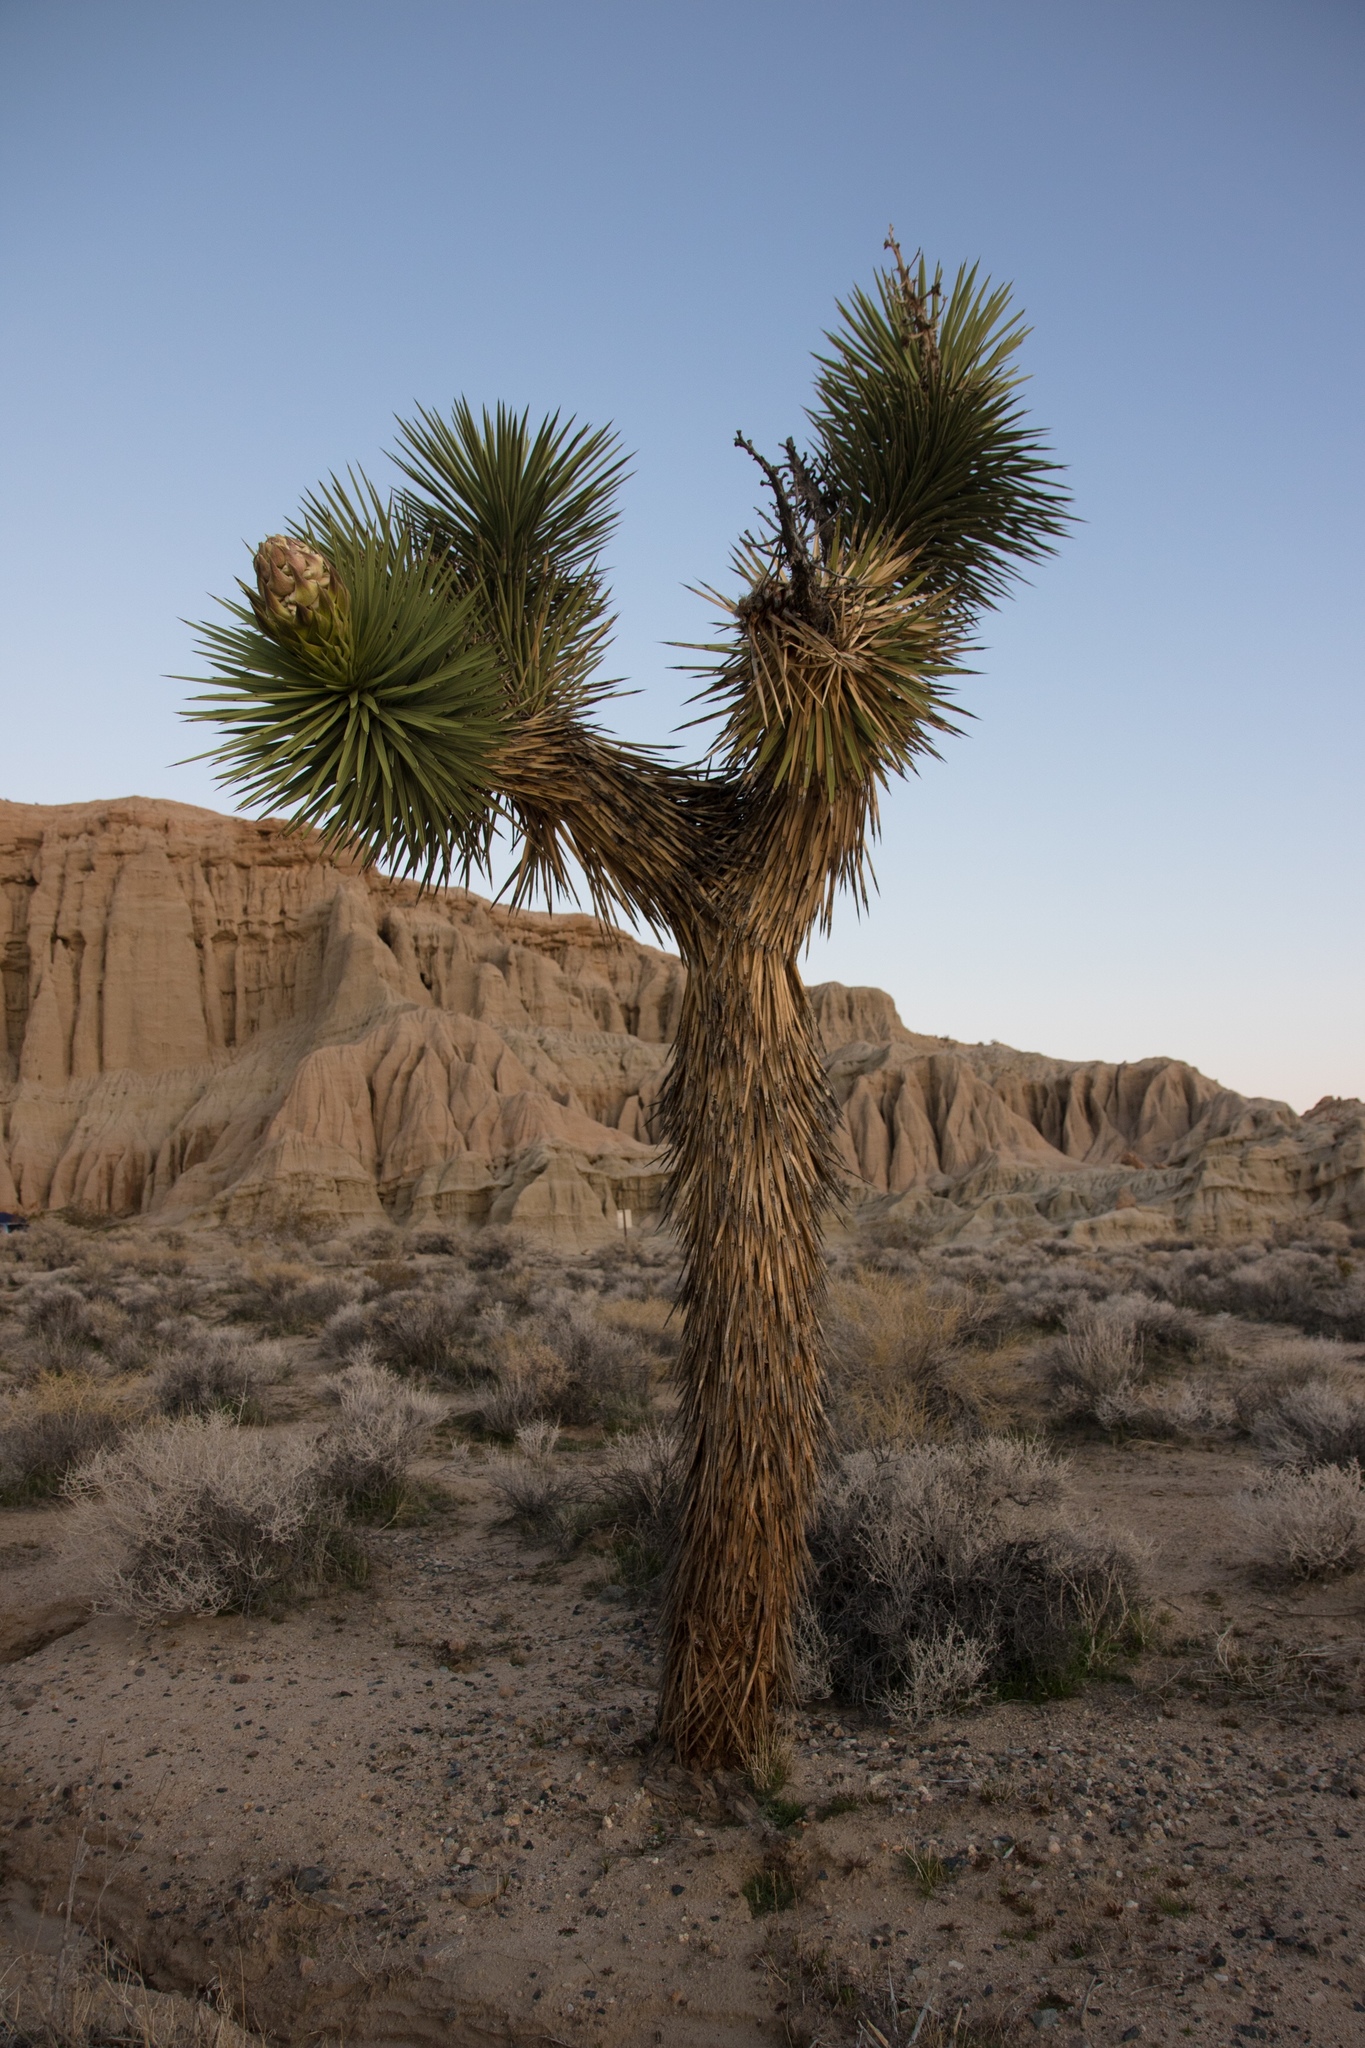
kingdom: Plantae
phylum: Tracheophyta
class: Liliopsida
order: Asparagales
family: Asparagaceae
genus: Yucca
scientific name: Yucca brevifolia
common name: Joshua tree
